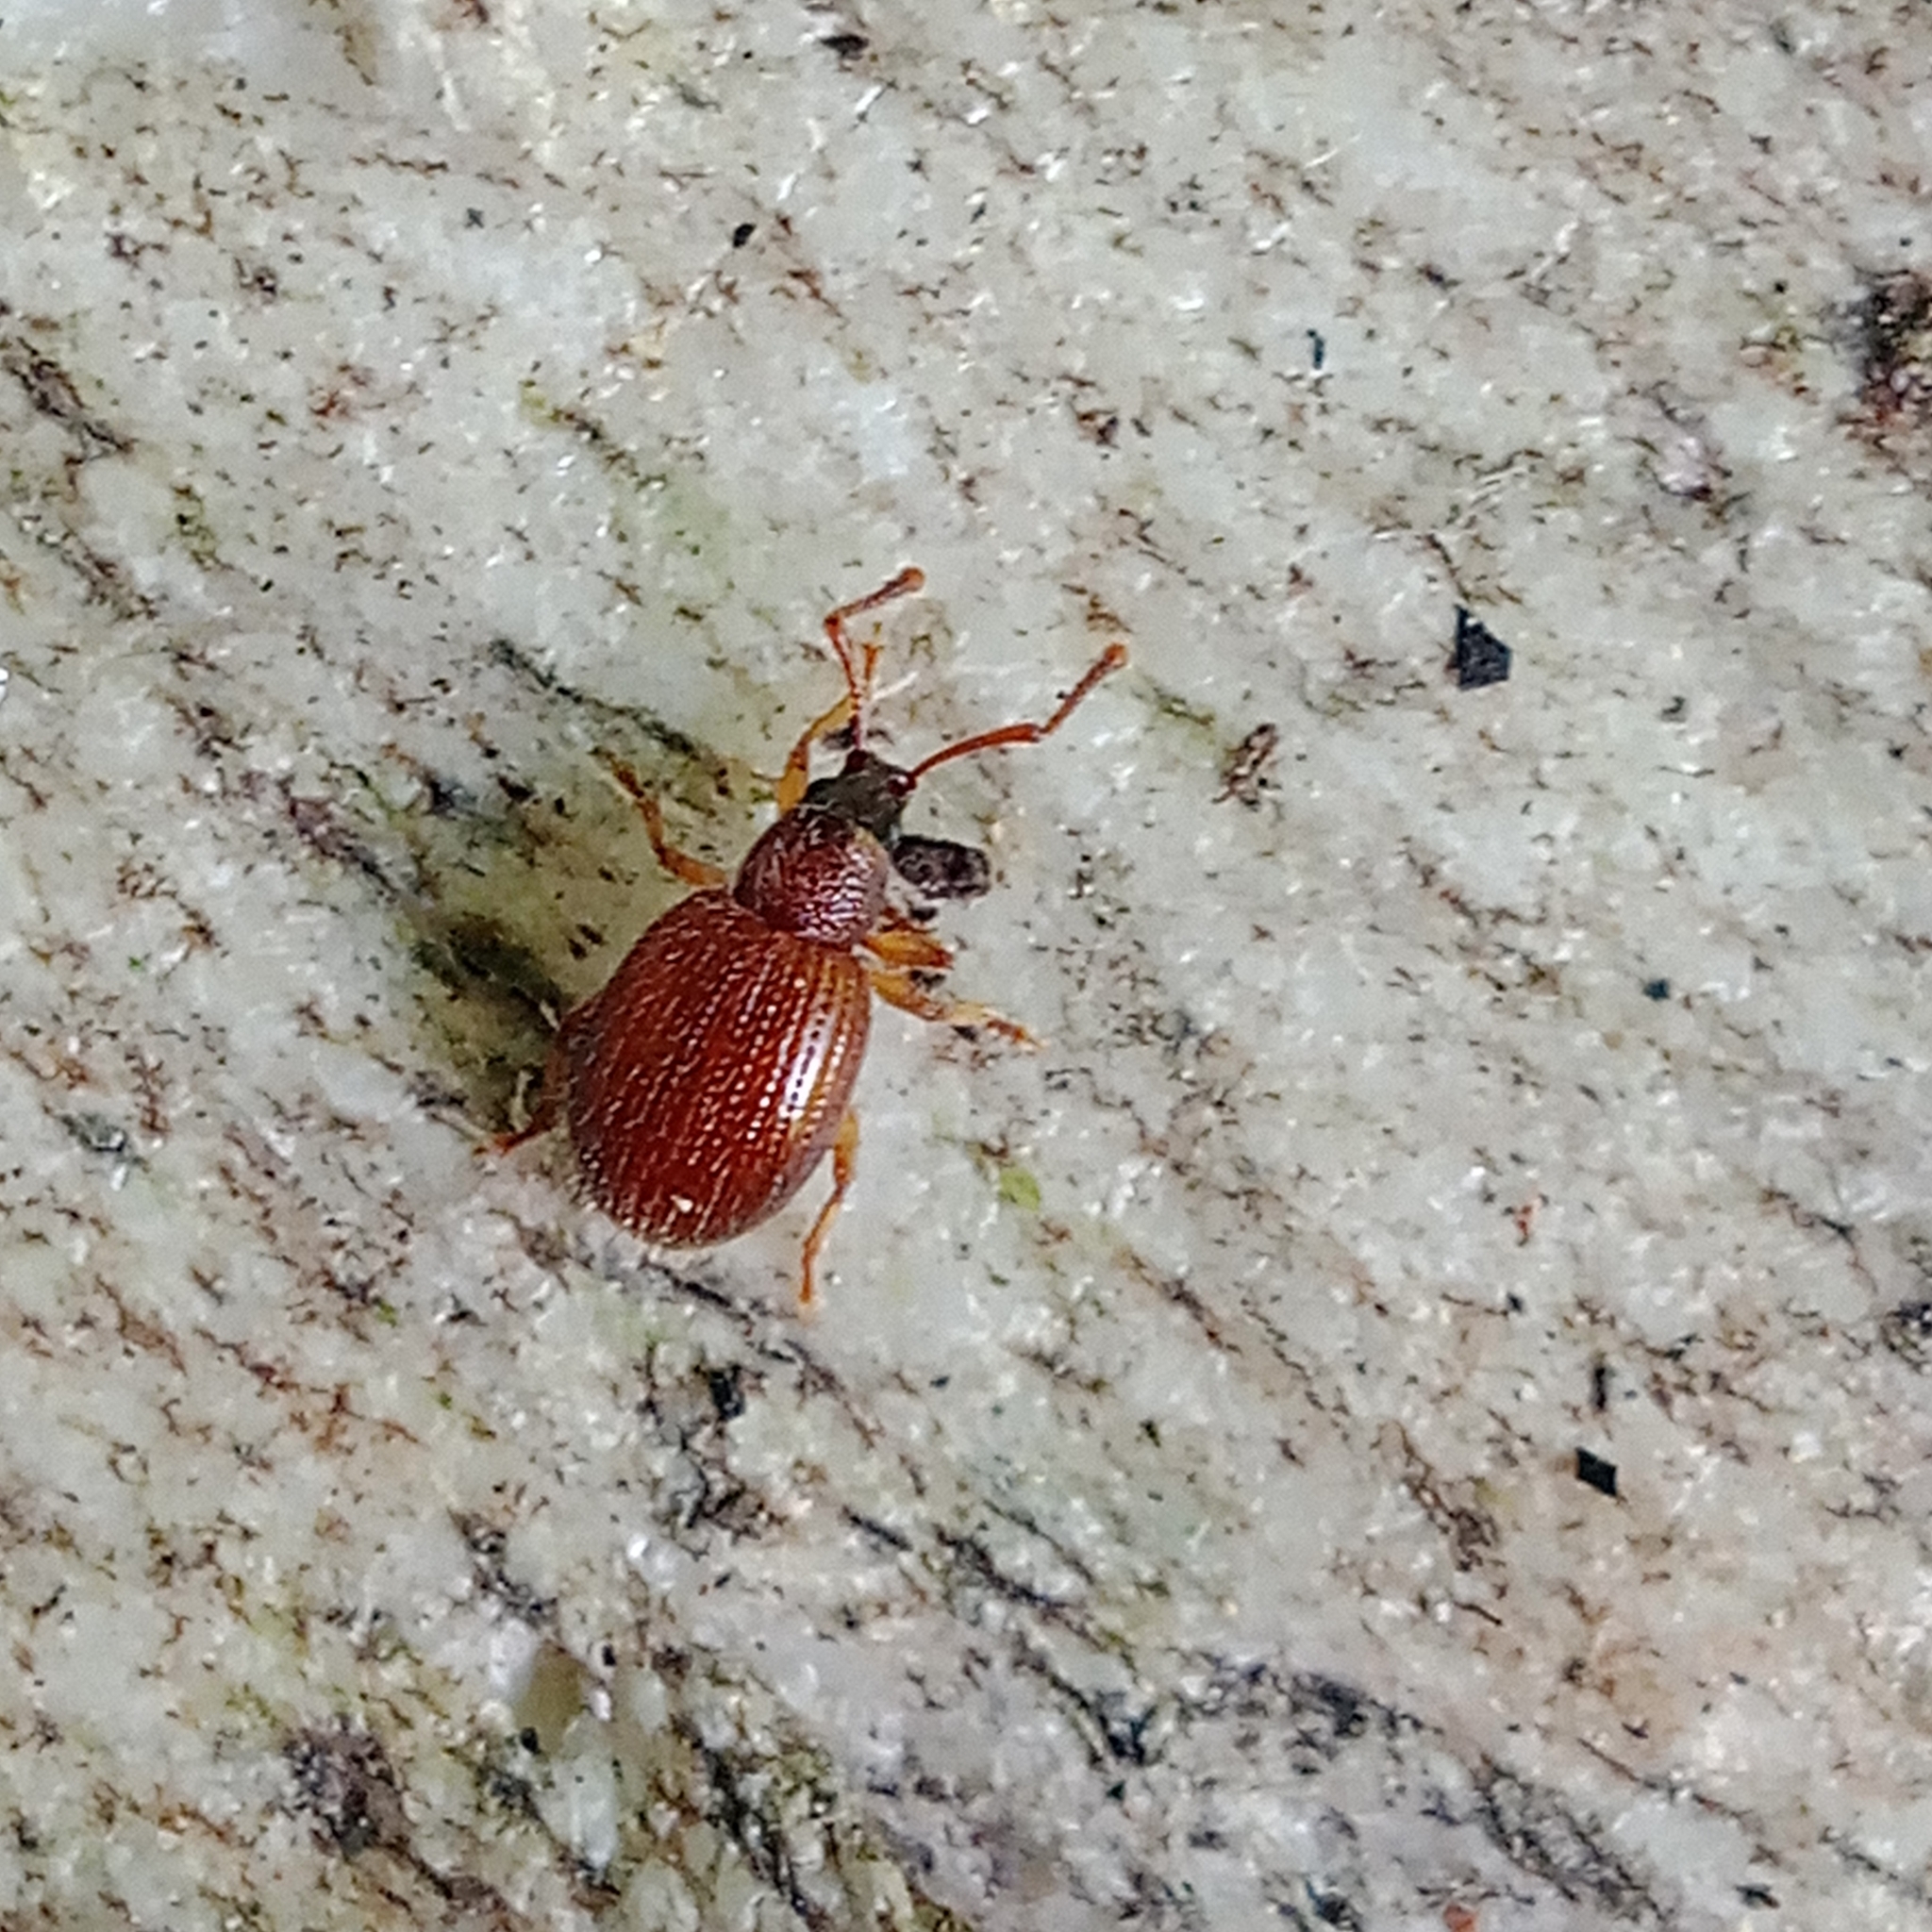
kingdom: Animalia
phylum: Arthropoda
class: Insecta
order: Coleoptera
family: Curculionidae
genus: Urometopus
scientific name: Urometopus nemorum
